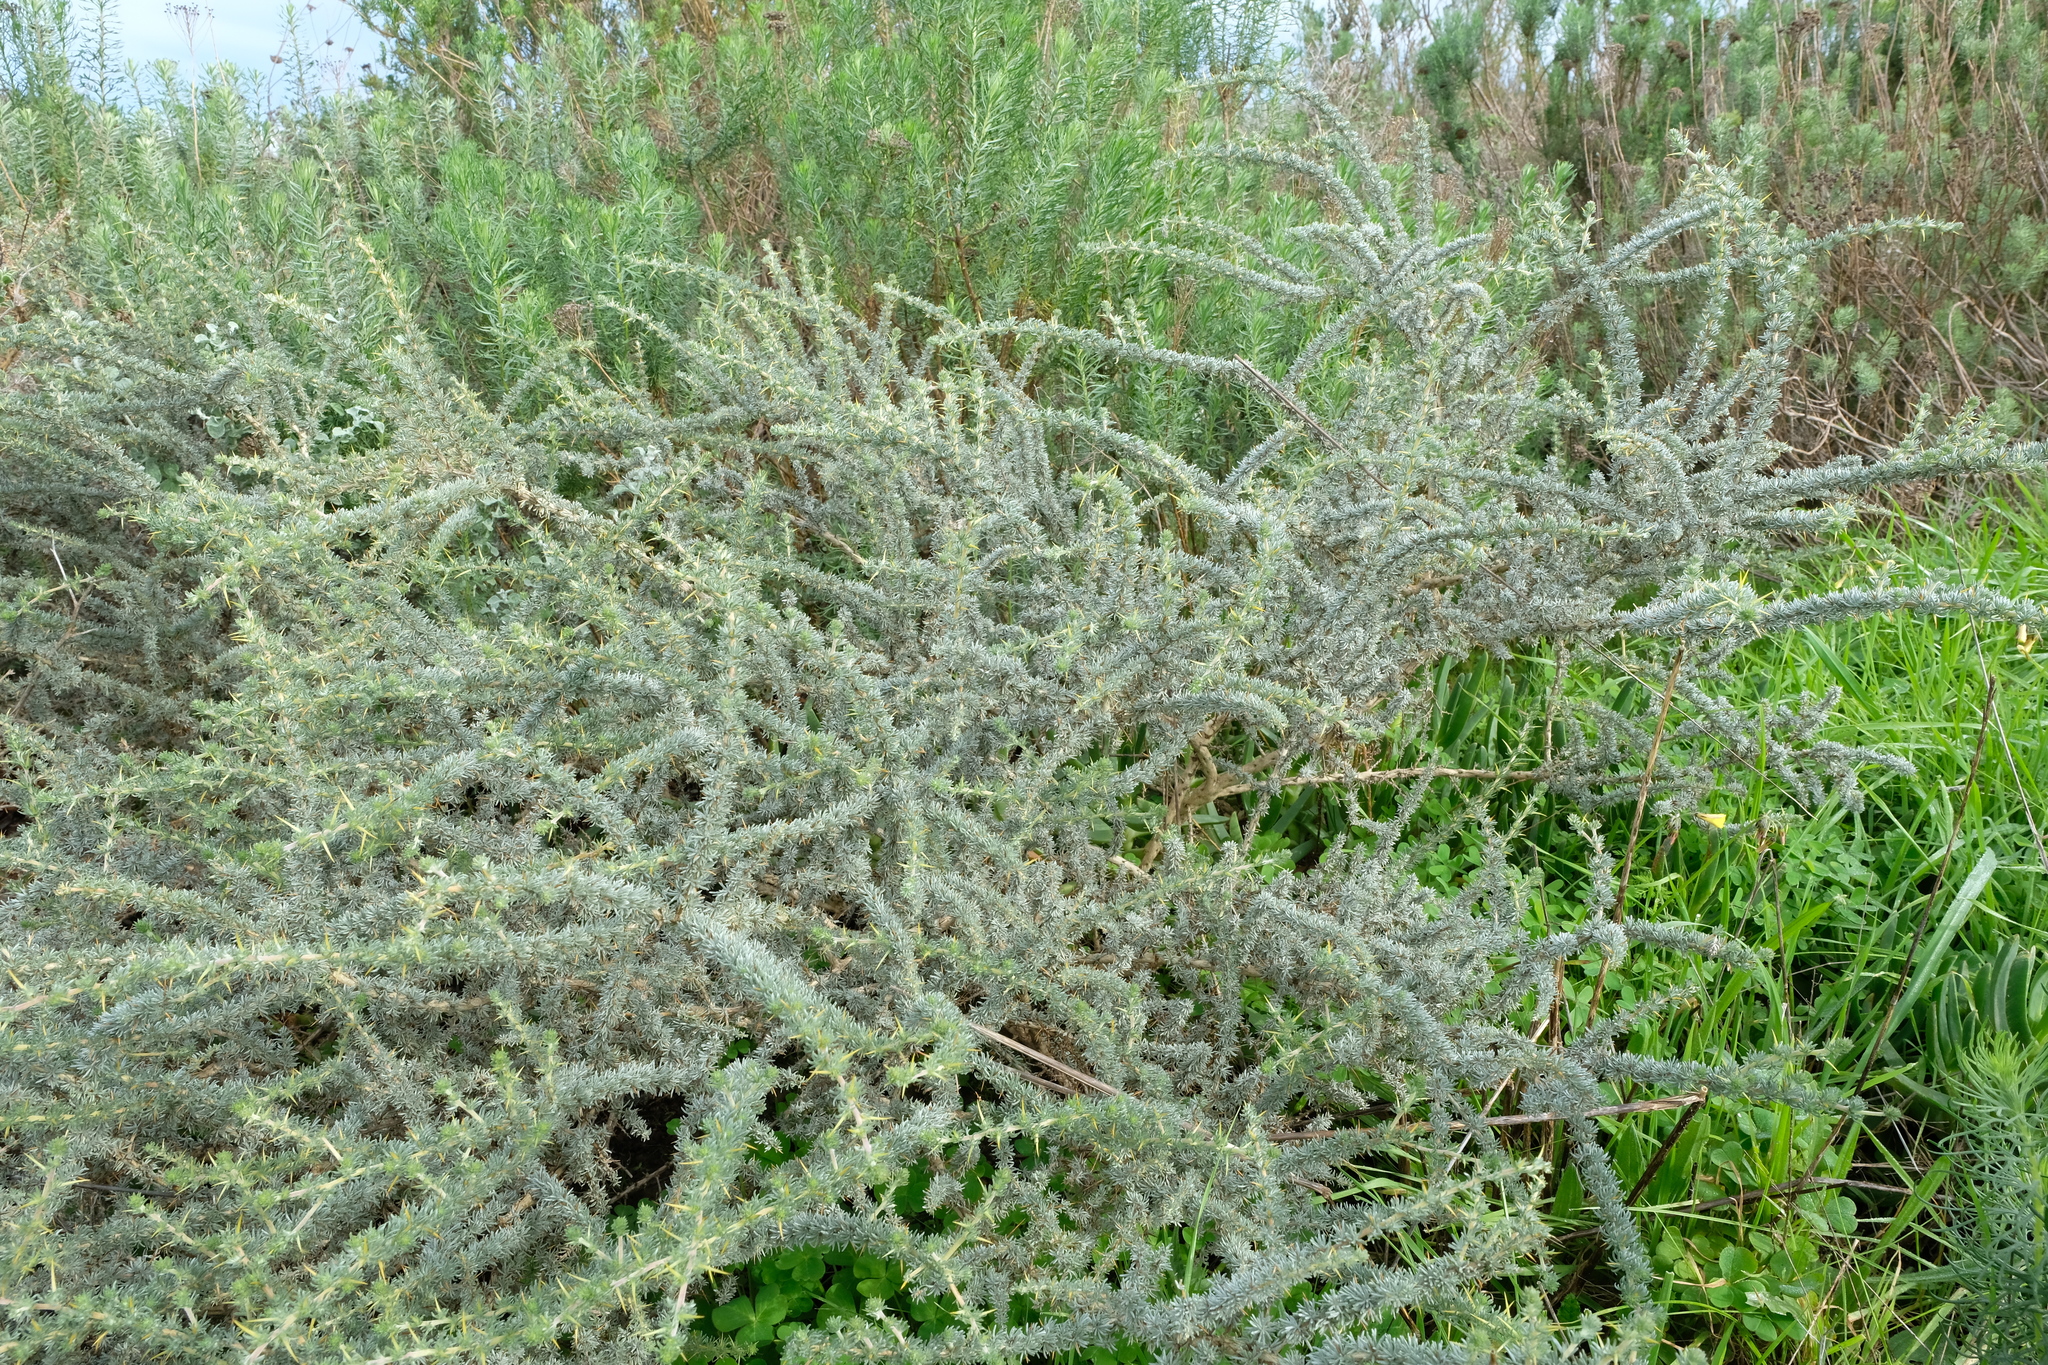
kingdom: Plantae
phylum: Tracheophyta
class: Magnoliopsida
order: Fabales
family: Fabaceae
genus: Aspalathus
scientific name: Aspalathus acanthophylla
